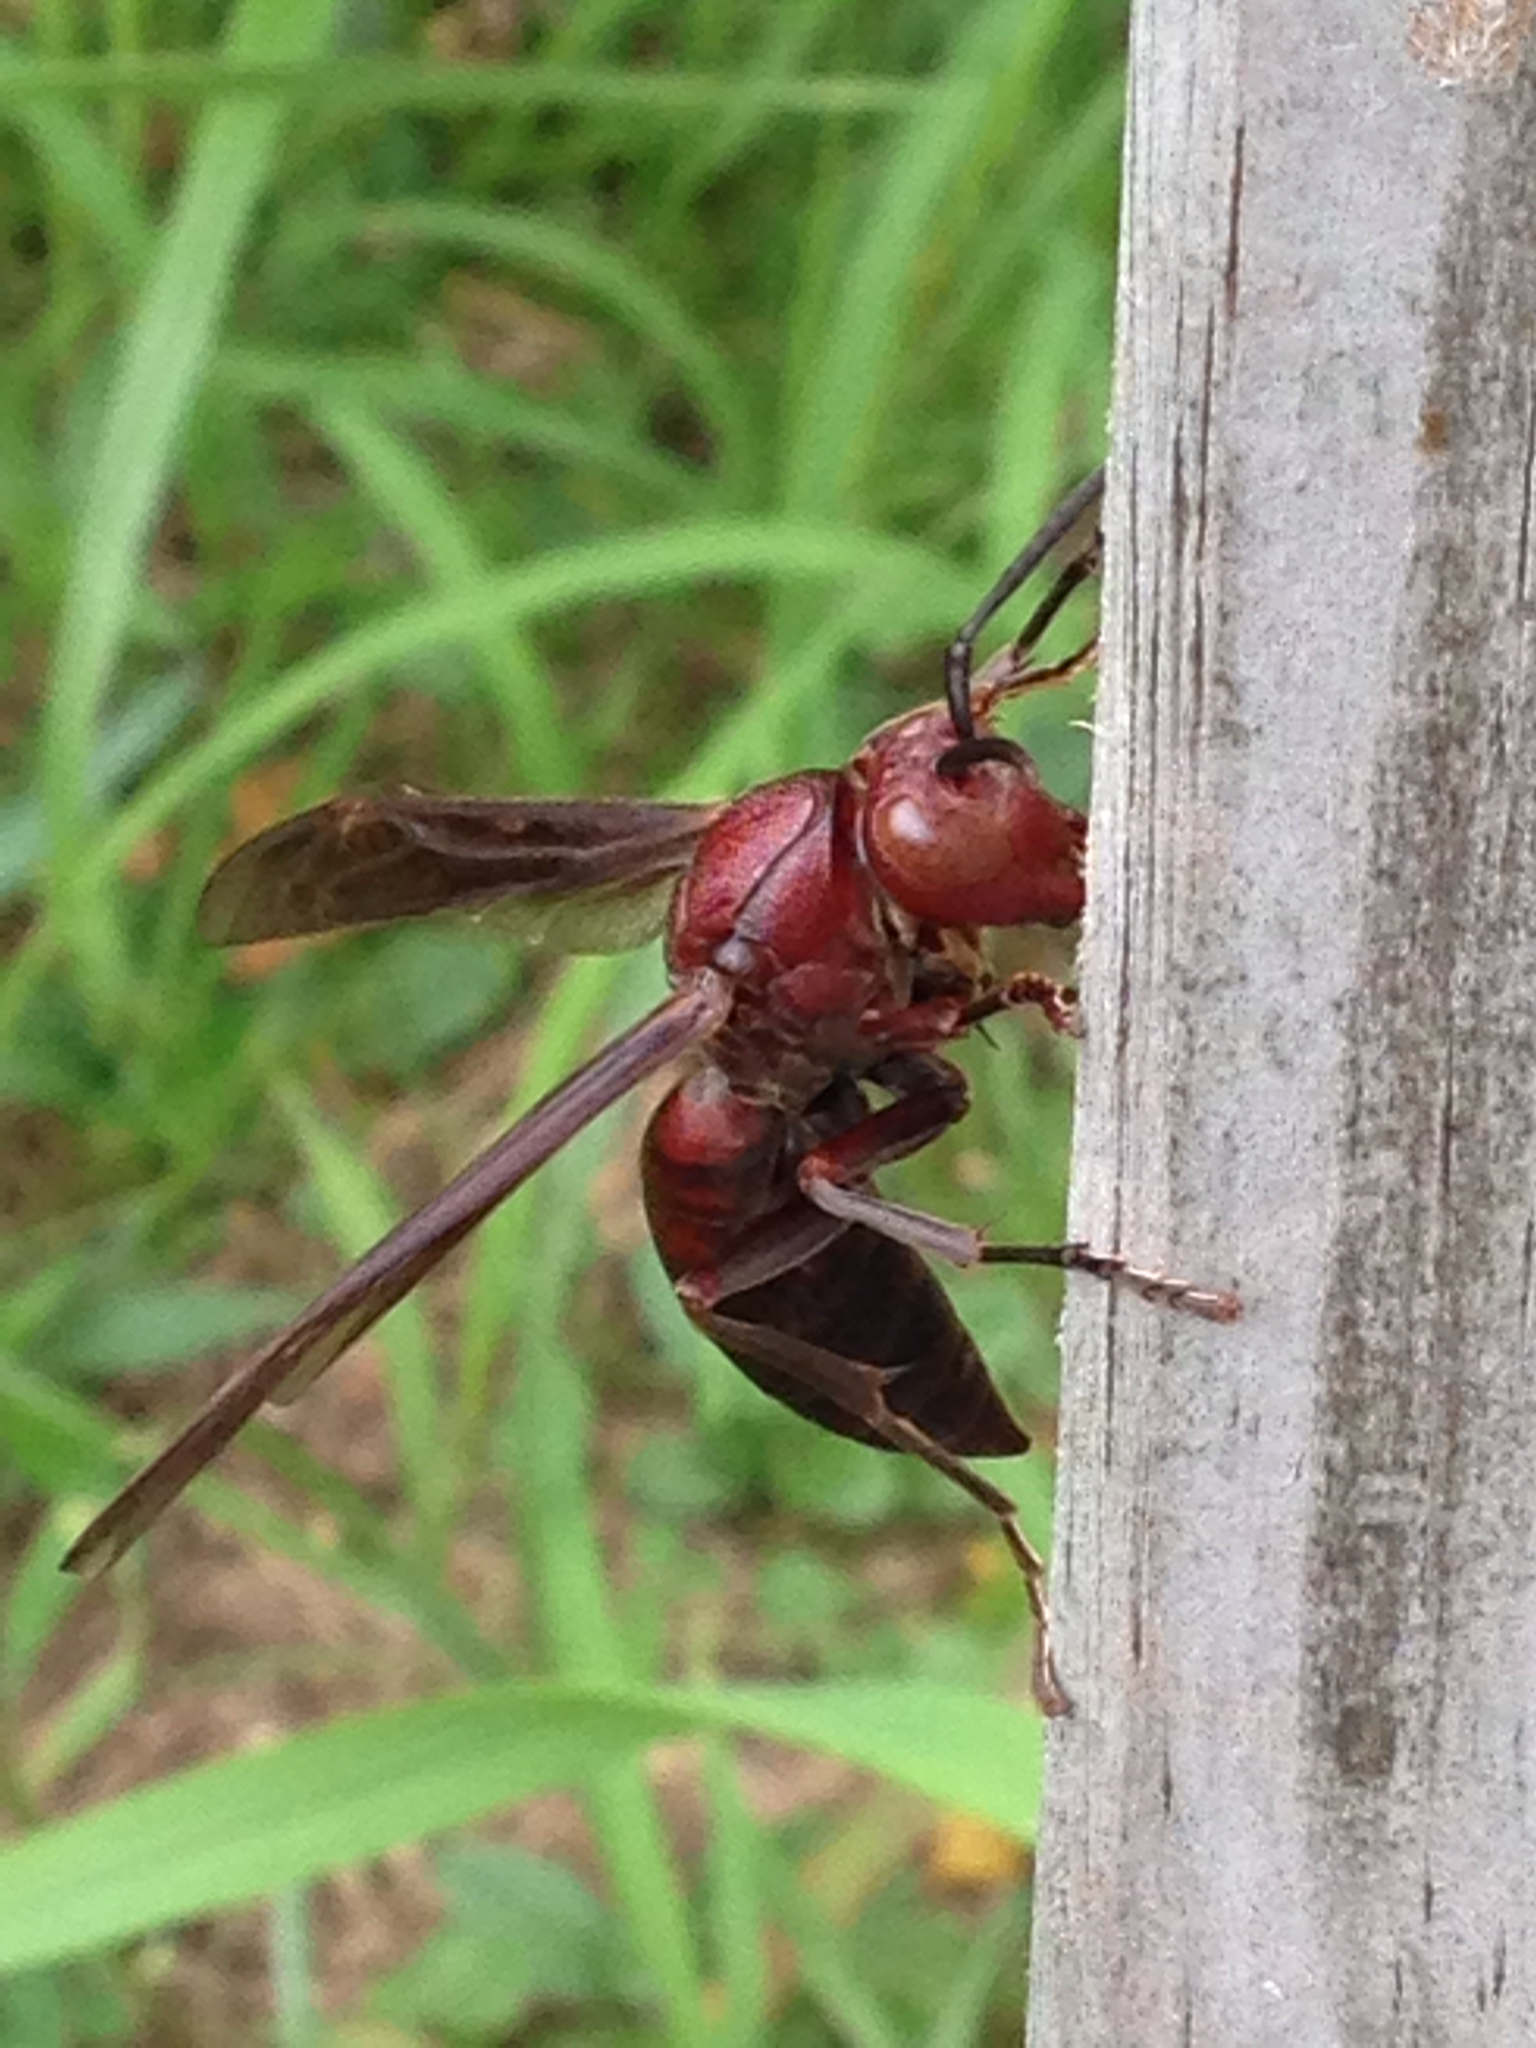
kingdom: Animalia
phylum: Arthropoda
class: Insecta
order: Hymenoptera
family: Eumenidae
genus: Polistes
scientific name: Polistes gigas
